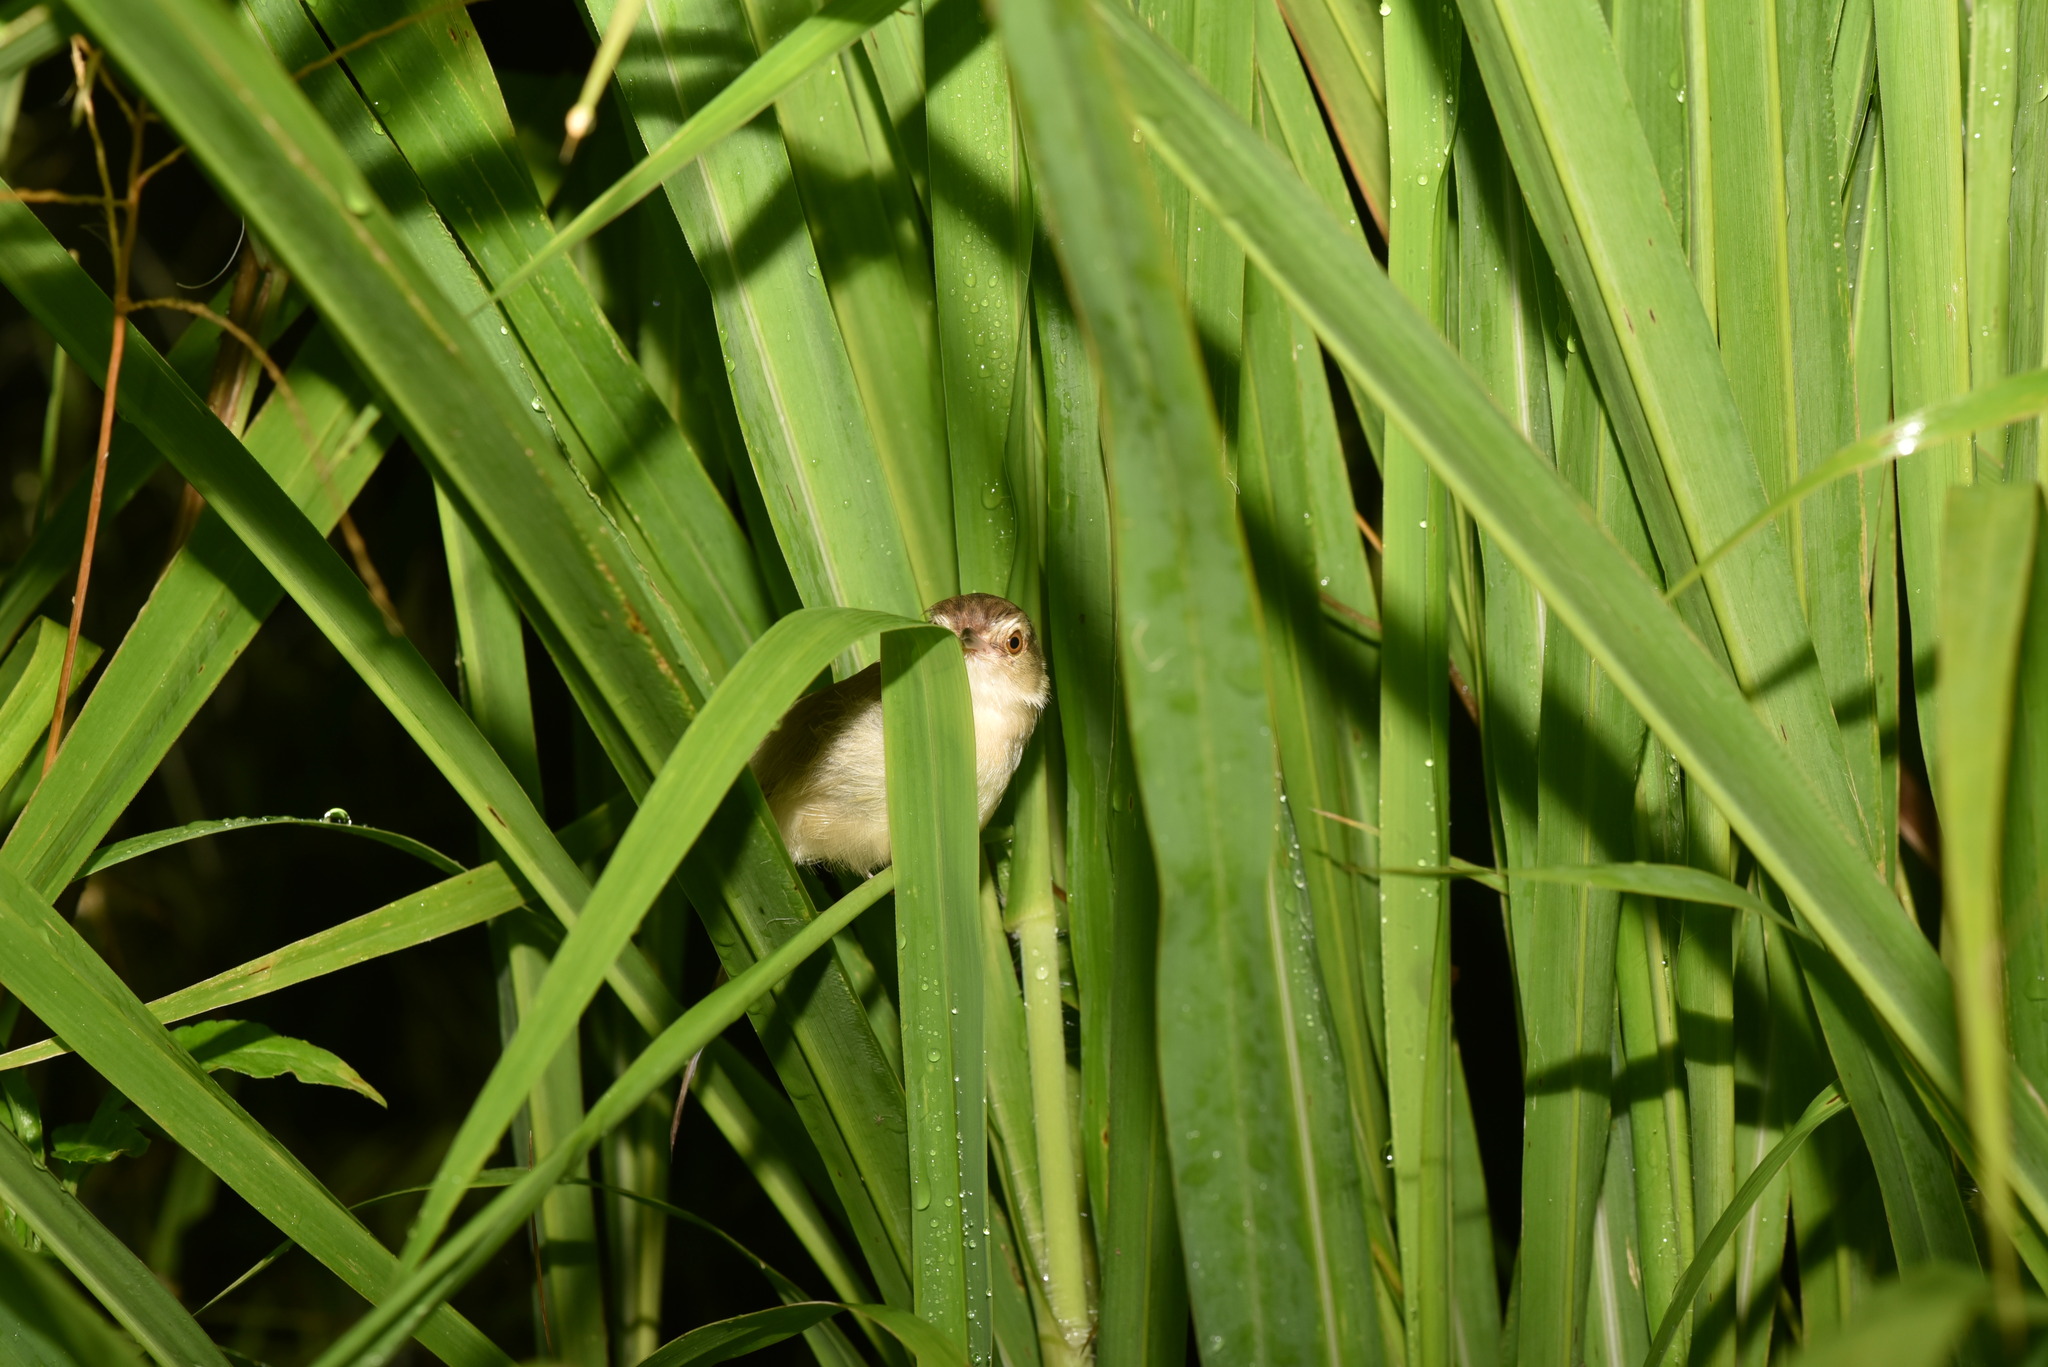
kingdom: Animalia
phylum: Chordata
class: Aves
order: Passeriformes
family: Cisticolidae
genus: Prinia
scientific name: Prinia inornata
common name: Plain prinia
